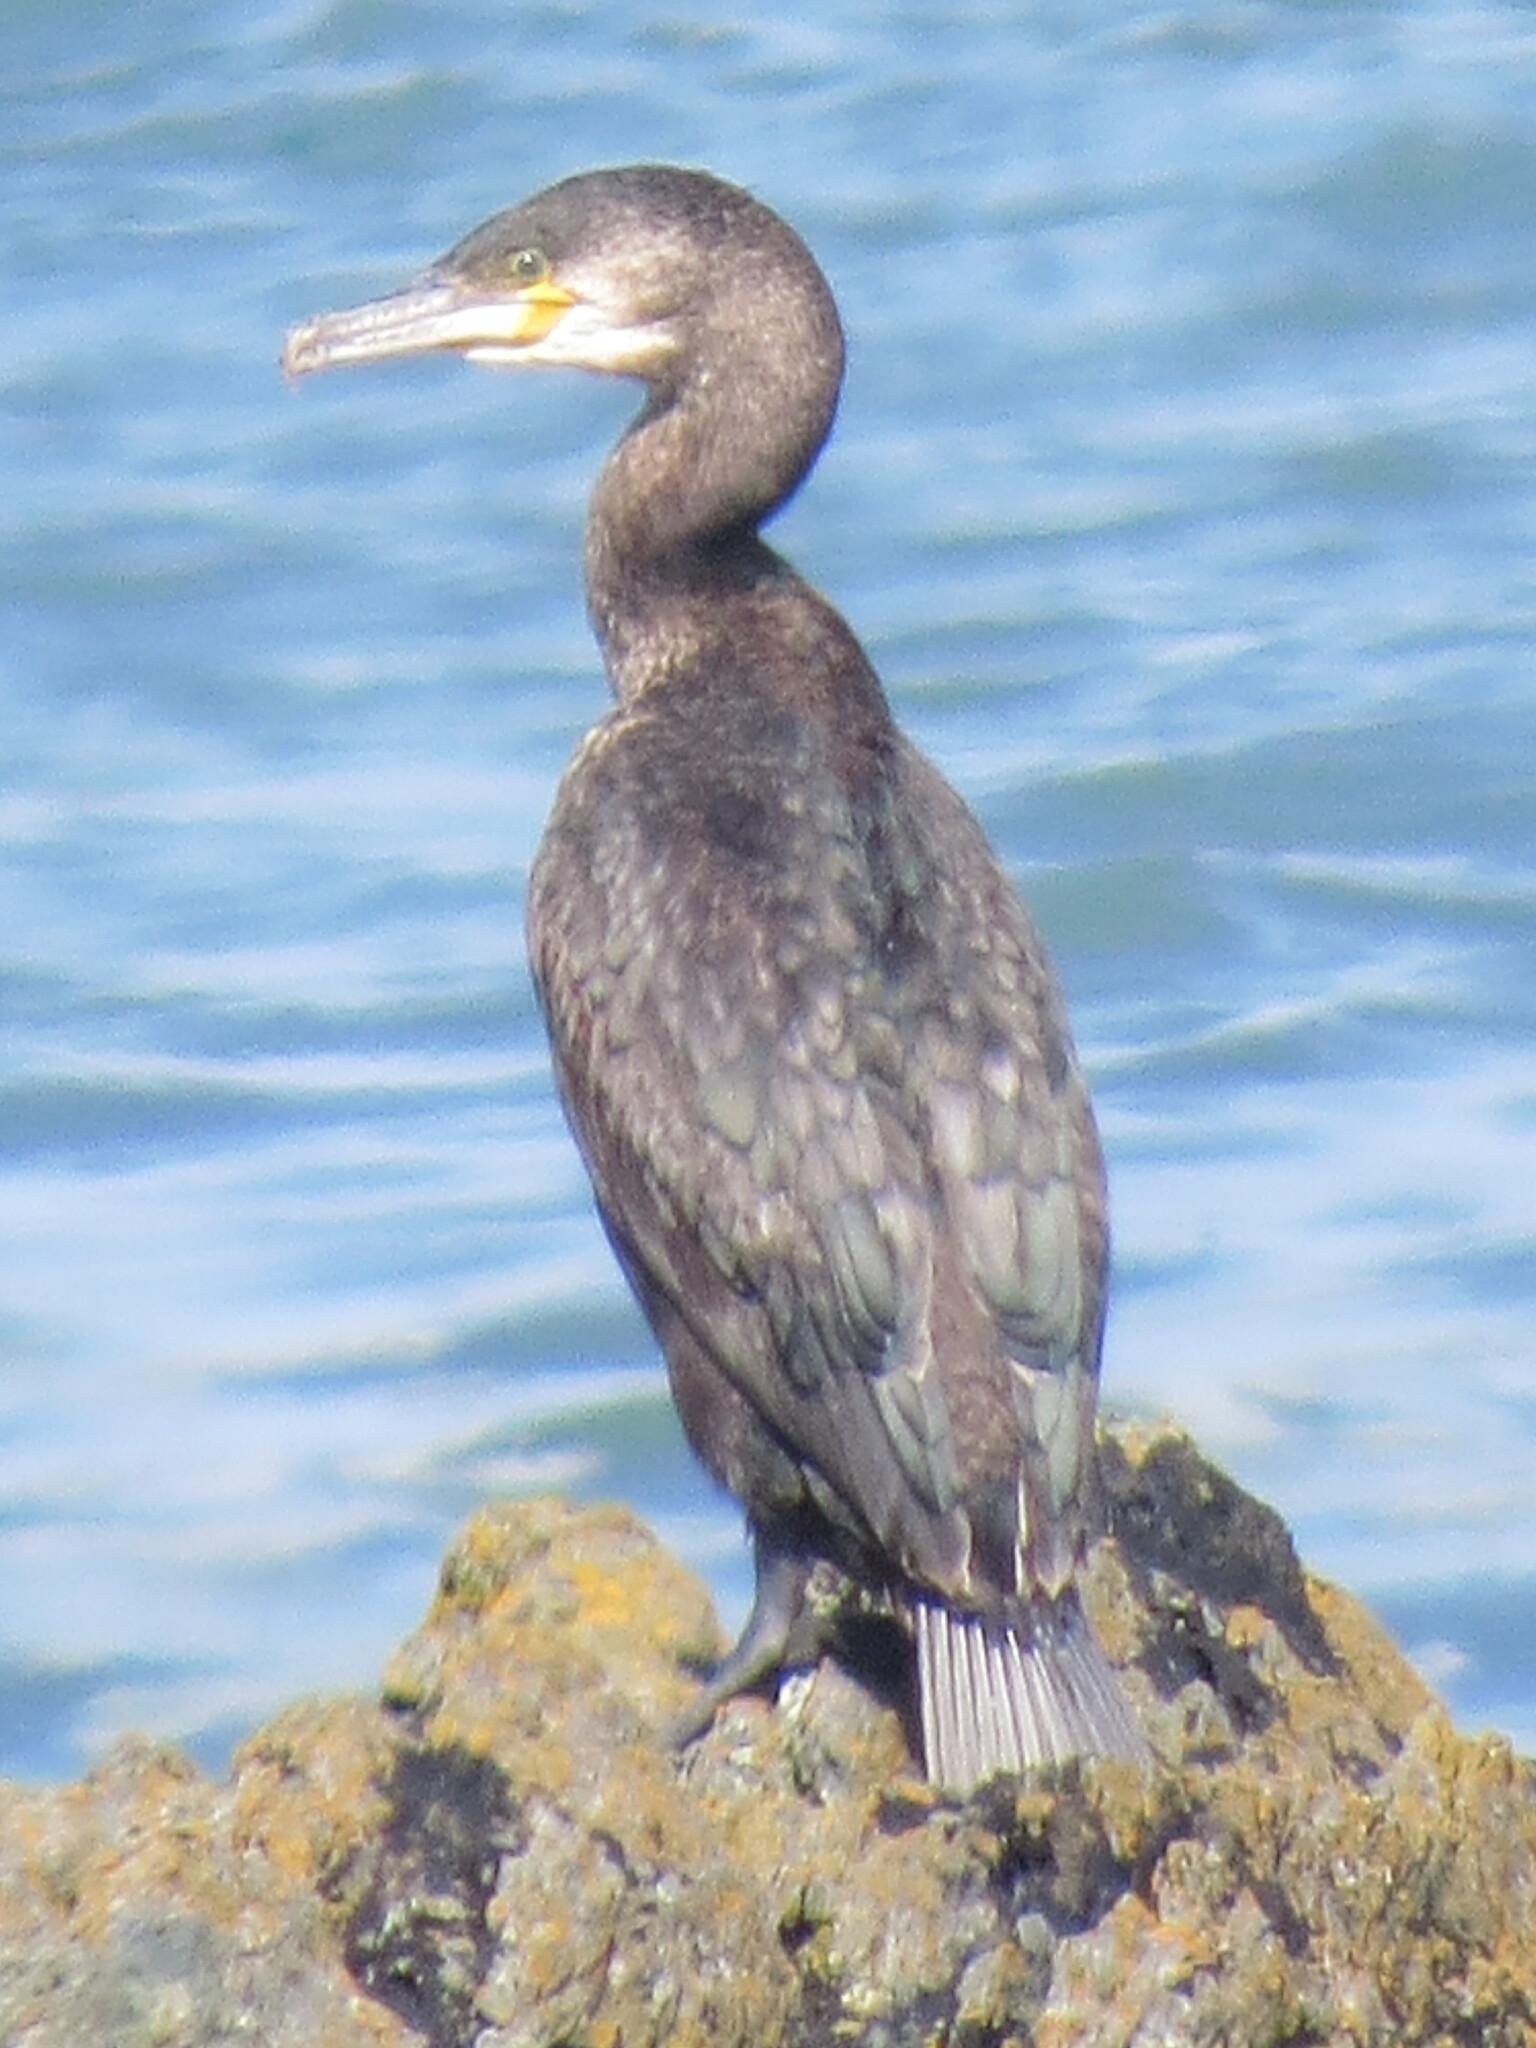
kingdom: Animalia
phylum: Chordata
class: Aves
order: Suliformes
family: Phalacrocoracidae
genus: Phalacrocorax
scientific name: Phalacrocorax carbo
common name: Great cormorant
